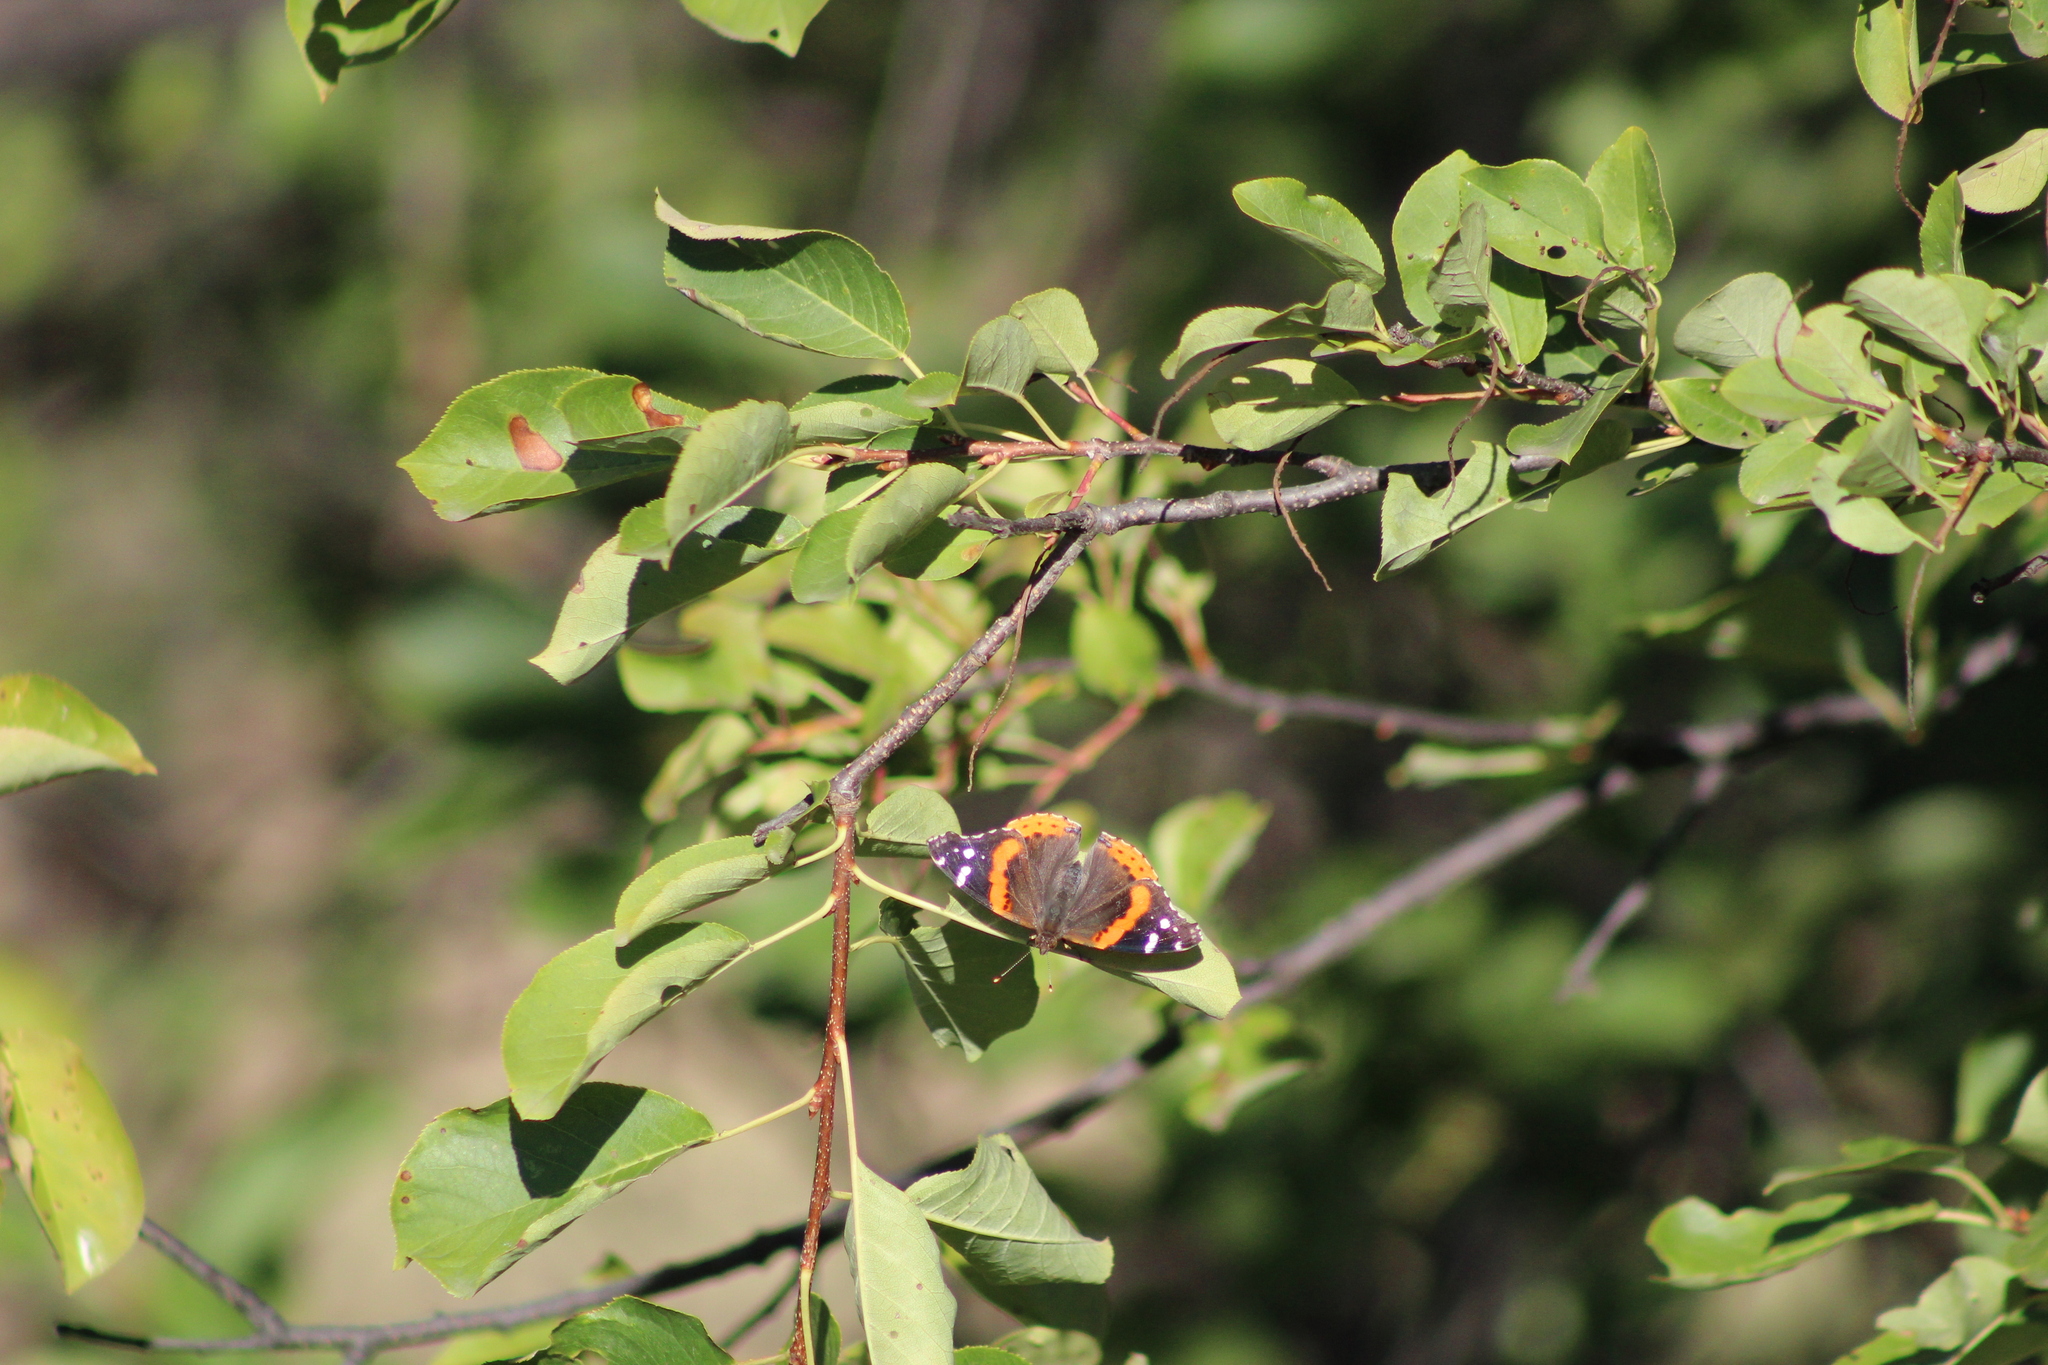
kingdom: Animalia
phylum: Arthropoda
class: Insecta
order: Lepidoptera
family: Nymphalidae
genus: Vanessa
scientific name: Vanessa atalanta
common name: Red admiral
